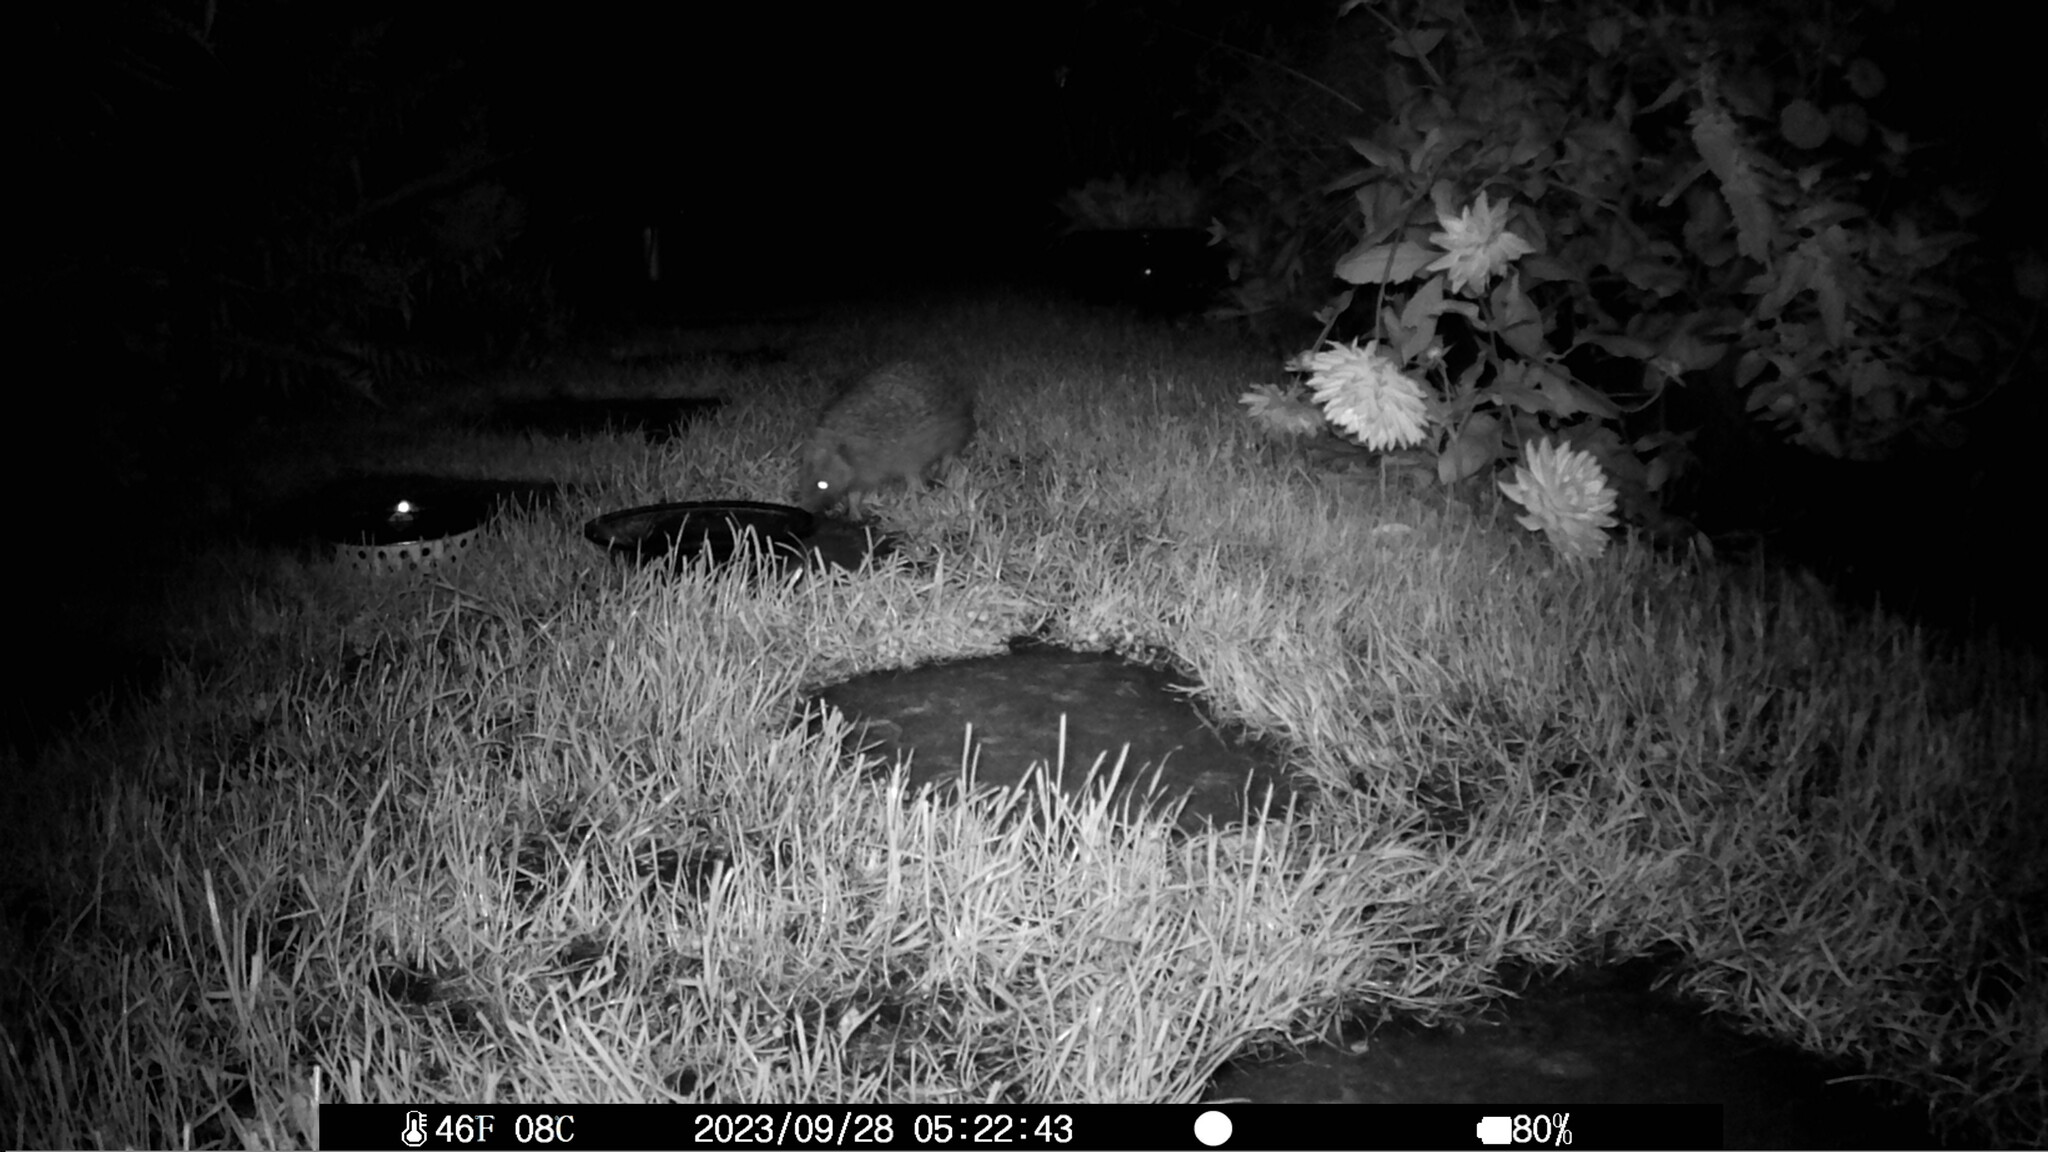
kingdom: Animalia
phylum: Chordata
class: Mammalia
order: Erinaceomorpha
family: Erinaceidae
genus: Erinaceus
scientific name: Erinaceus europaeus
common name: West european hedgehog
